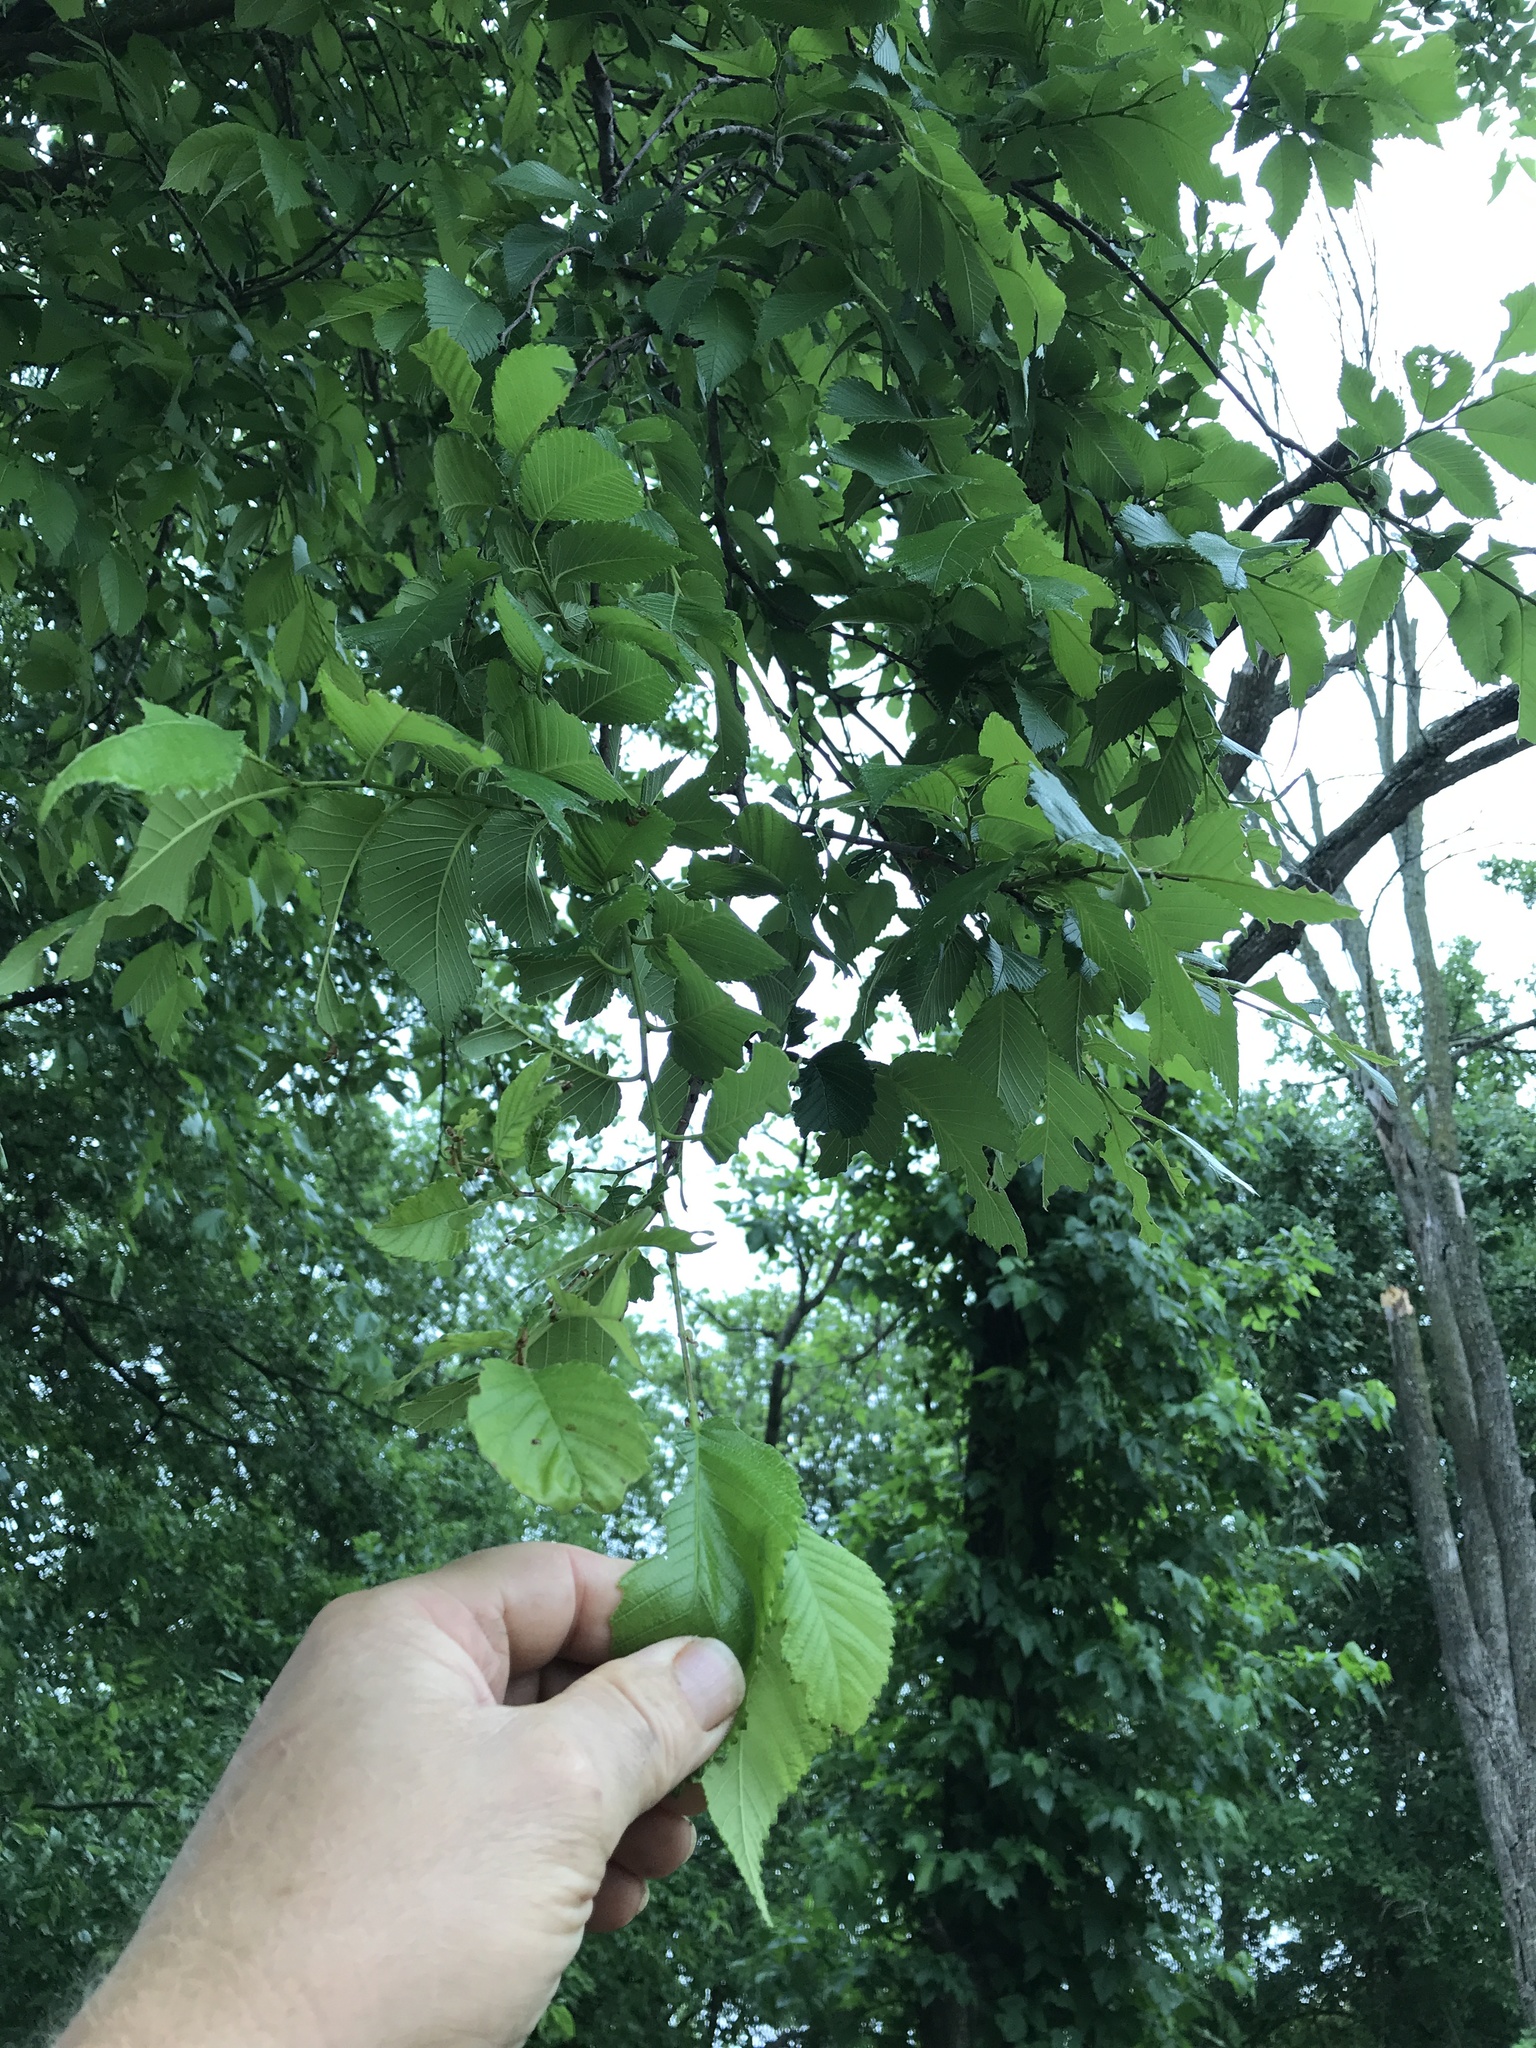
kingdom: Plantae
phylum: Tracheophyta
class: Magnoliopsida
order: Rosales
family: Ulmaceae
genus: Ulmus
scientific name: Ulmus americana
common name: American elm
